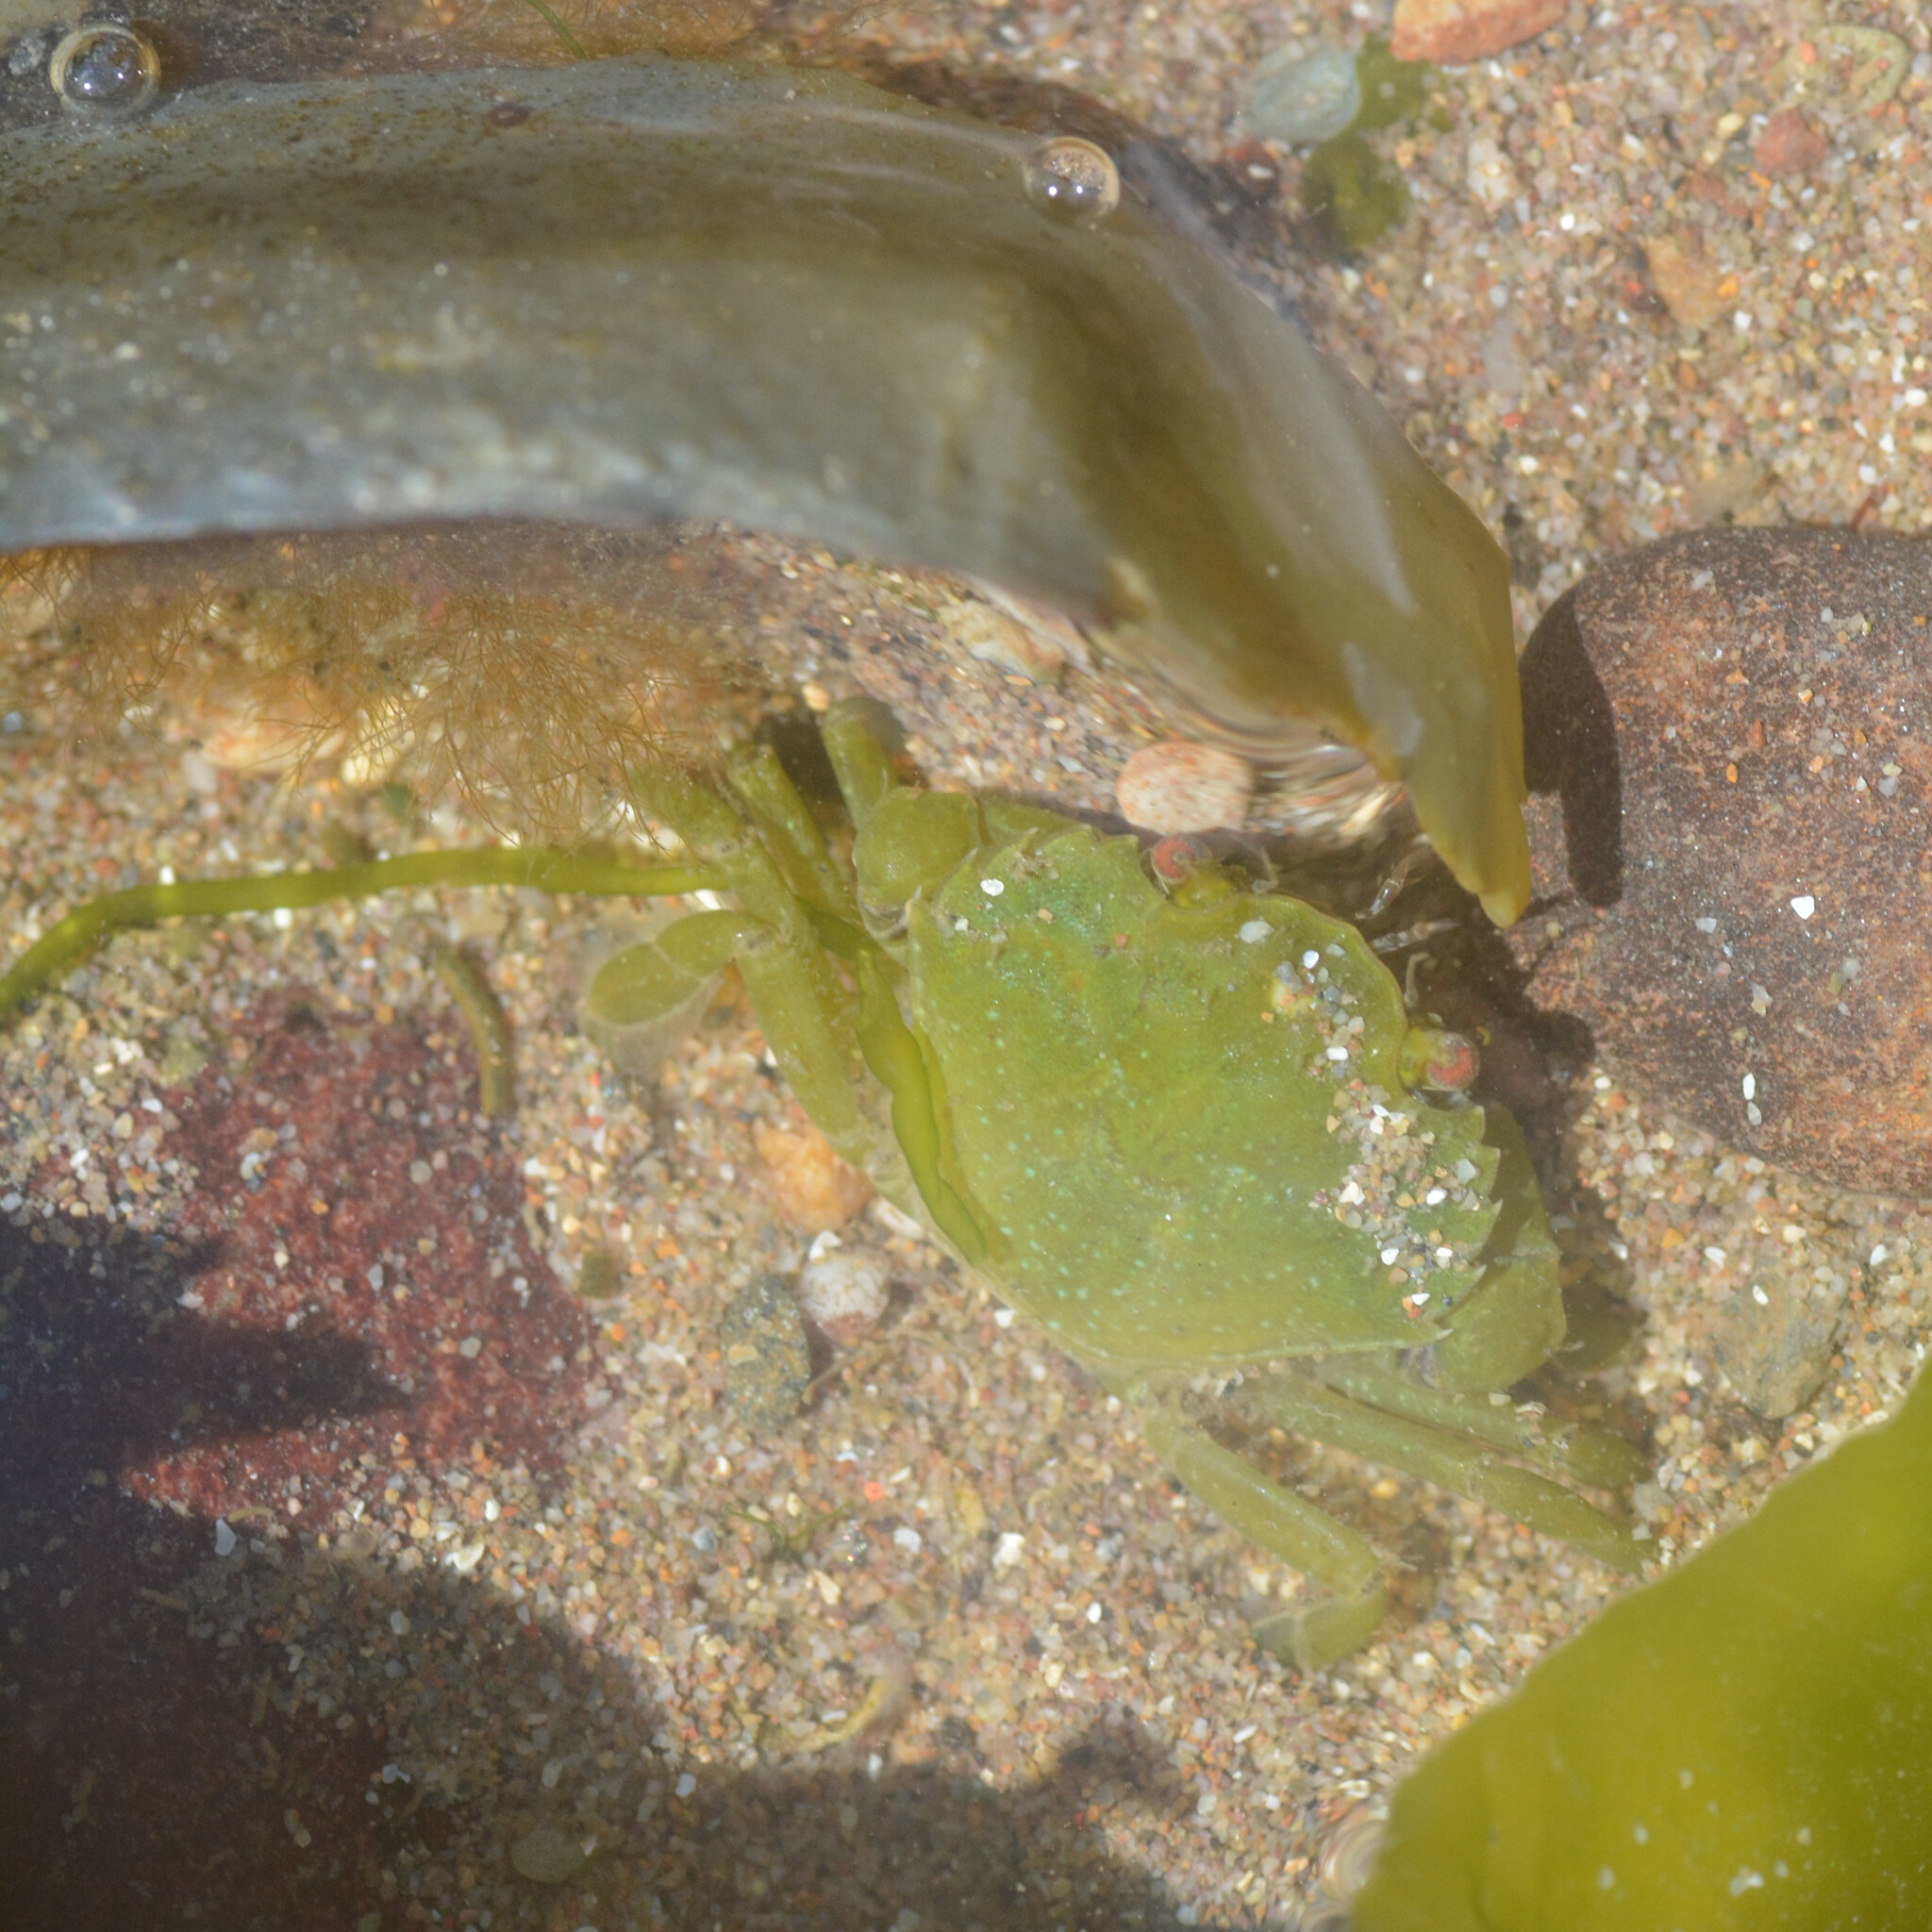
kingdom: Animalia
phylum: Arthropoda
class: Malacostraca
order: Decapoda
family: Carcinidae
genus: Carcinus
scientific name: Carcinus maenas
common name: European green crab
